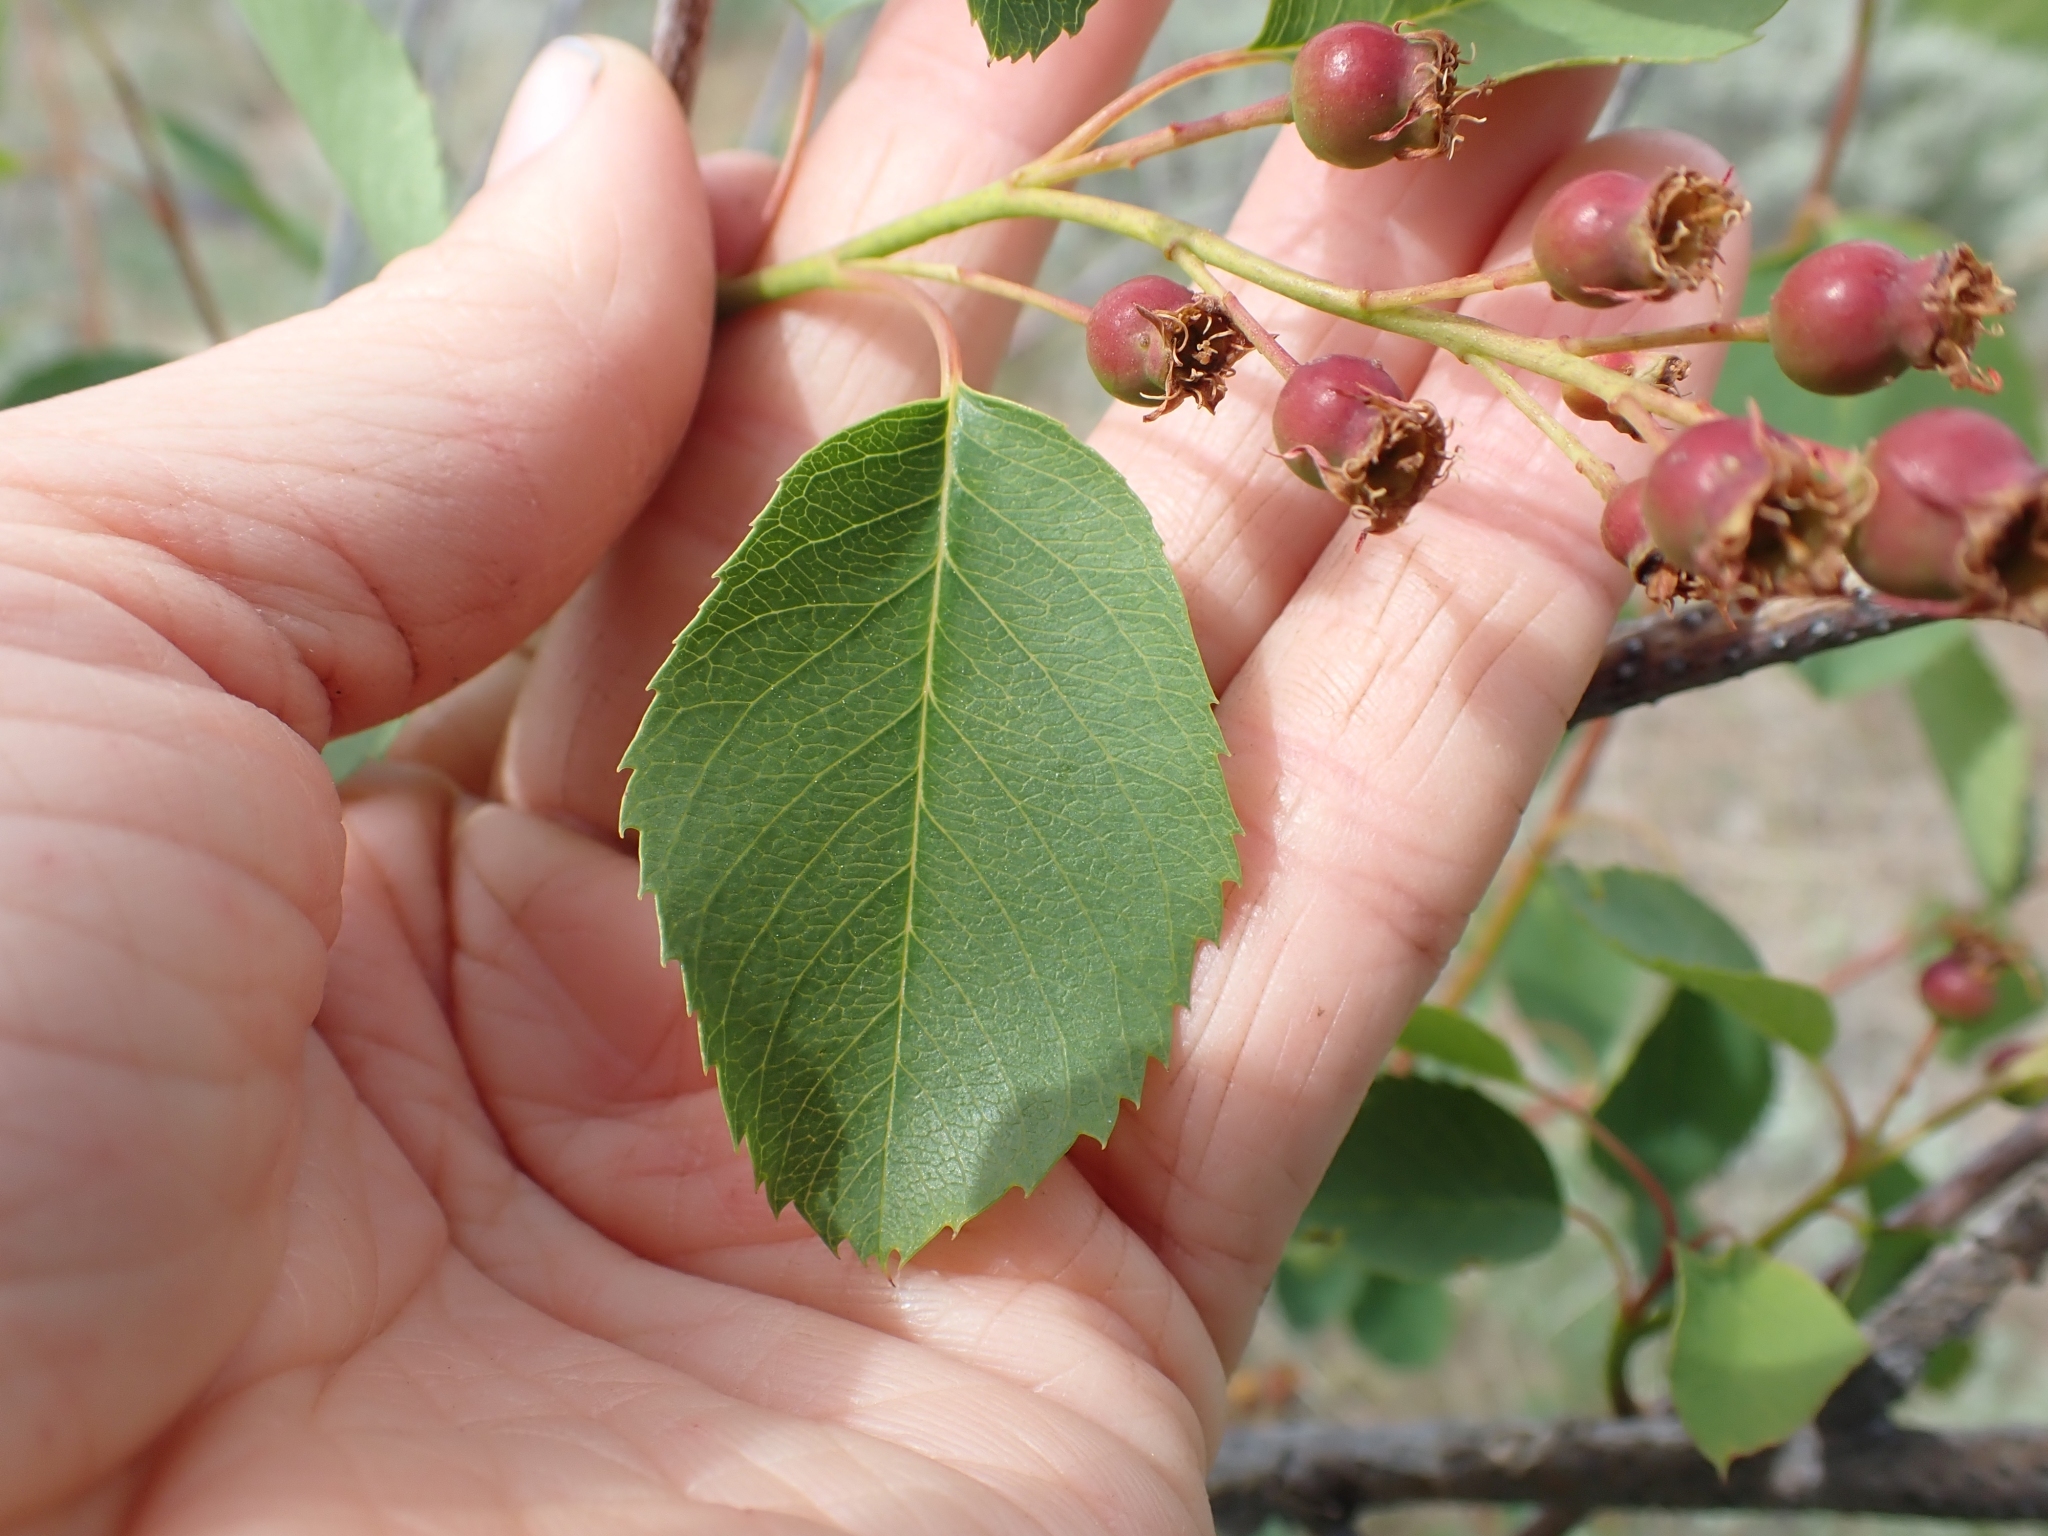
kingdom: Plantae
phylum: Tracheophyta
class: Magnoliopsida
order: Rosales
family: Rosaceae
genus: Amelanchier
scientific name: Amelanchier alnifolia
